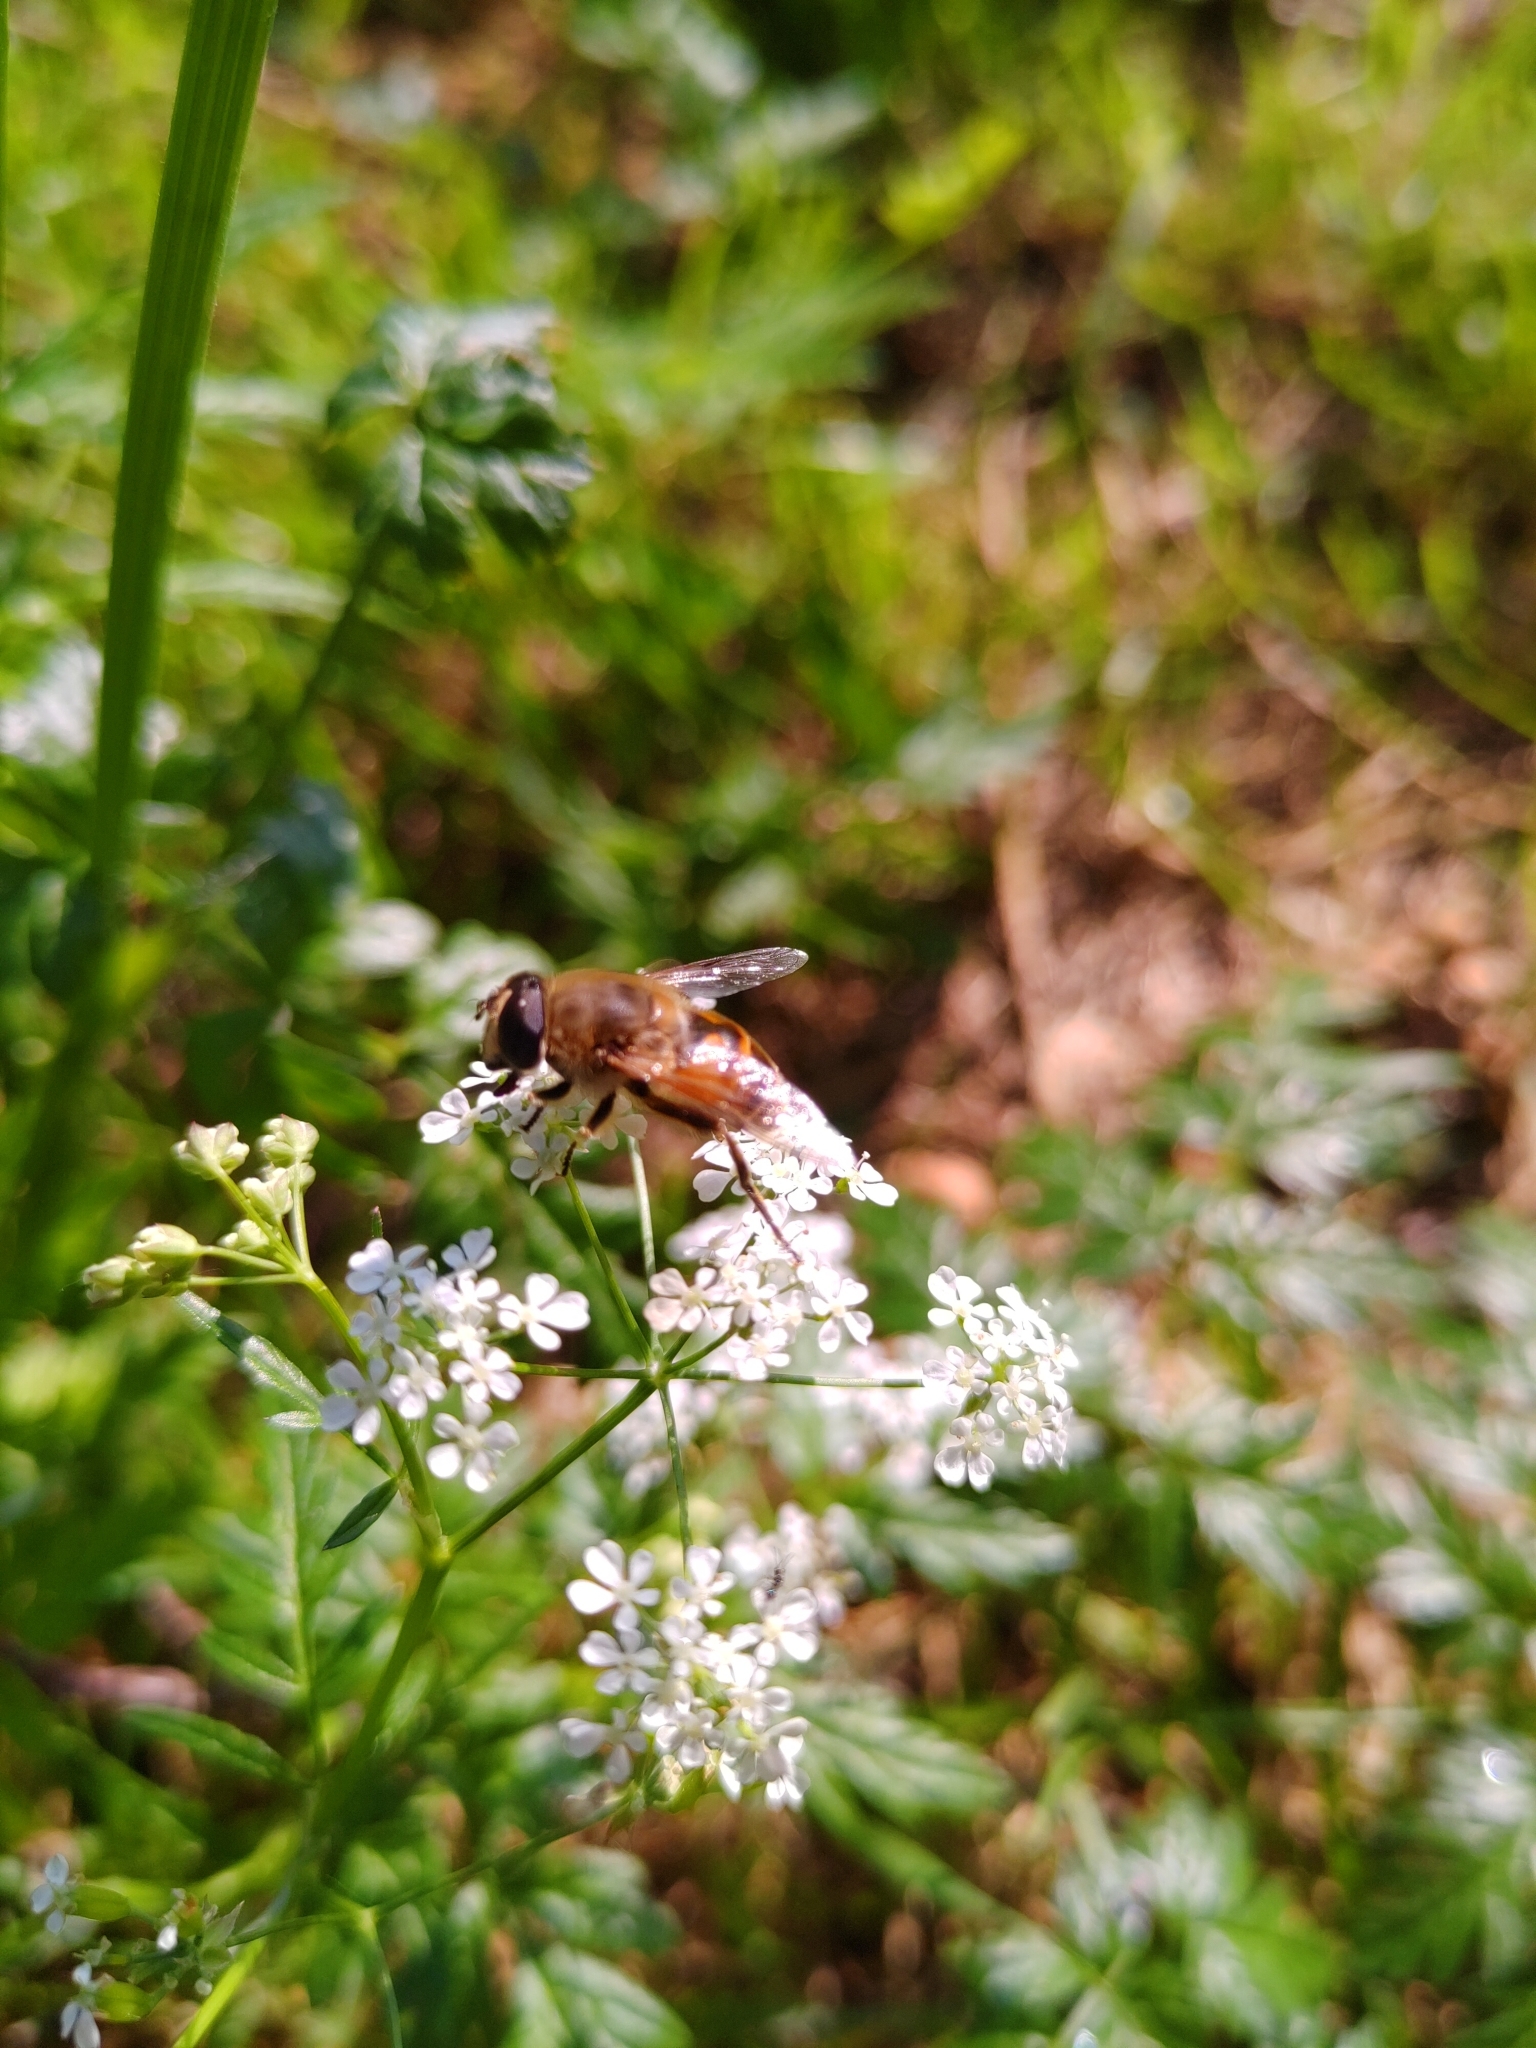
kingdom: Animalia
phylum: Arthropoda
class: Insecta
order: Diptera
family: Syrphidae
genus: Eristalis
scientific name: Eristalis tenax
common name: Drone fly
